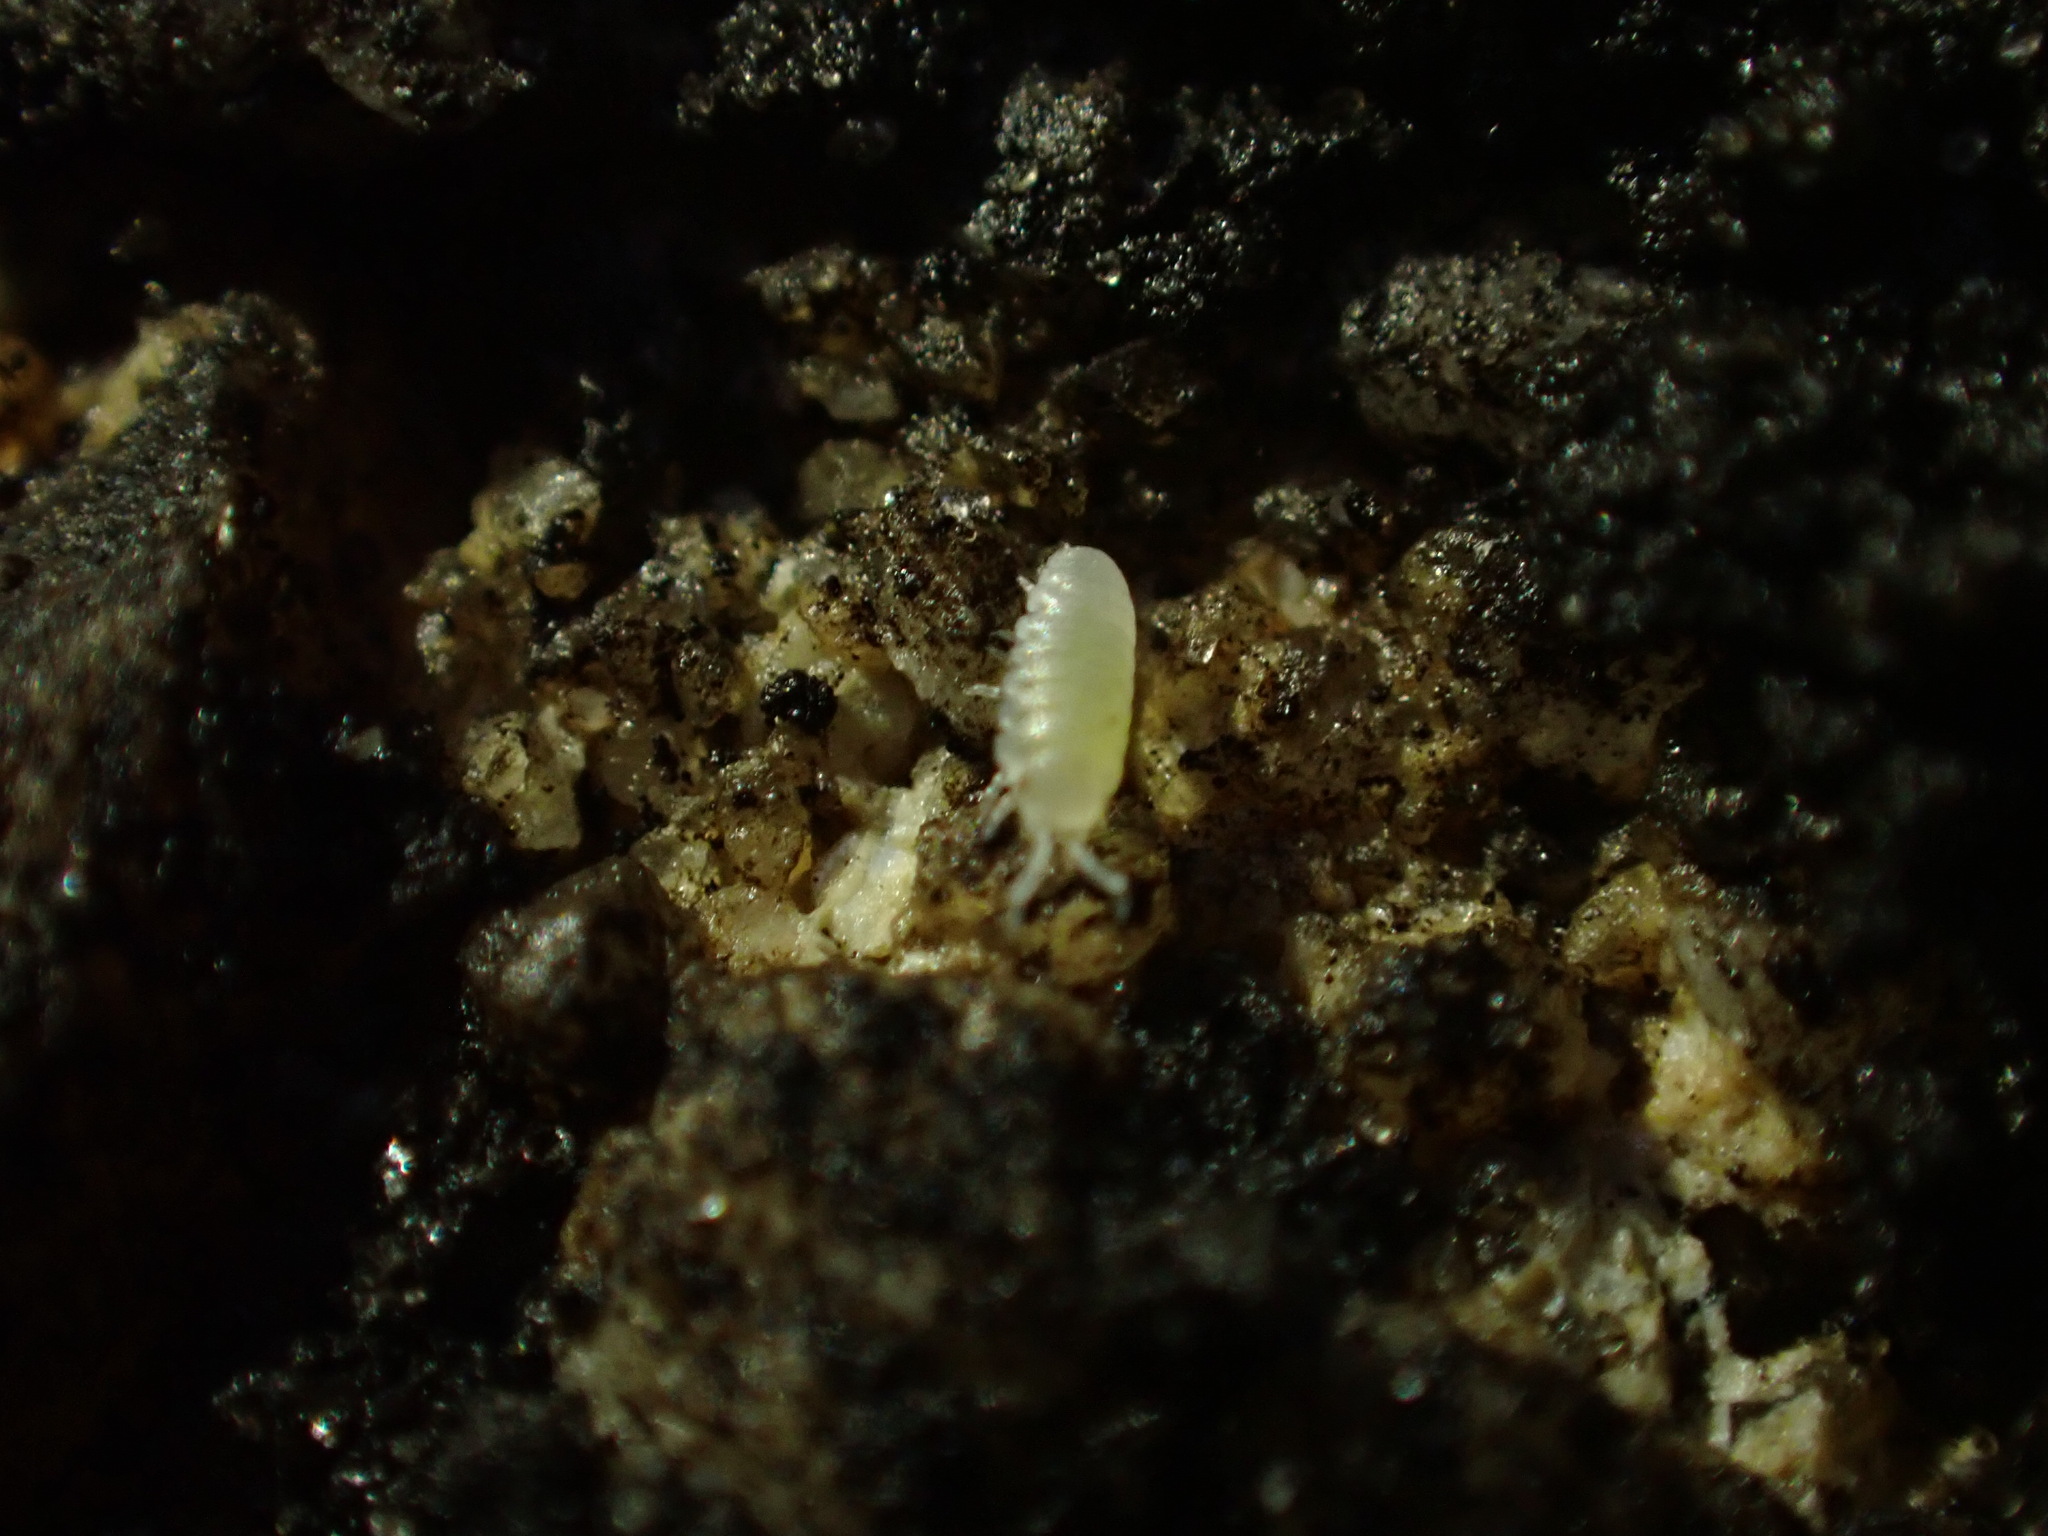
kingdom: Animalia
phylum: Arthropoda
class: Malacostraca
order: Isopoda
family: Armadillidiidae
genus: Armadillidium
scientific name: Armadillidium vulgare
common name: Common pill woodlouse
